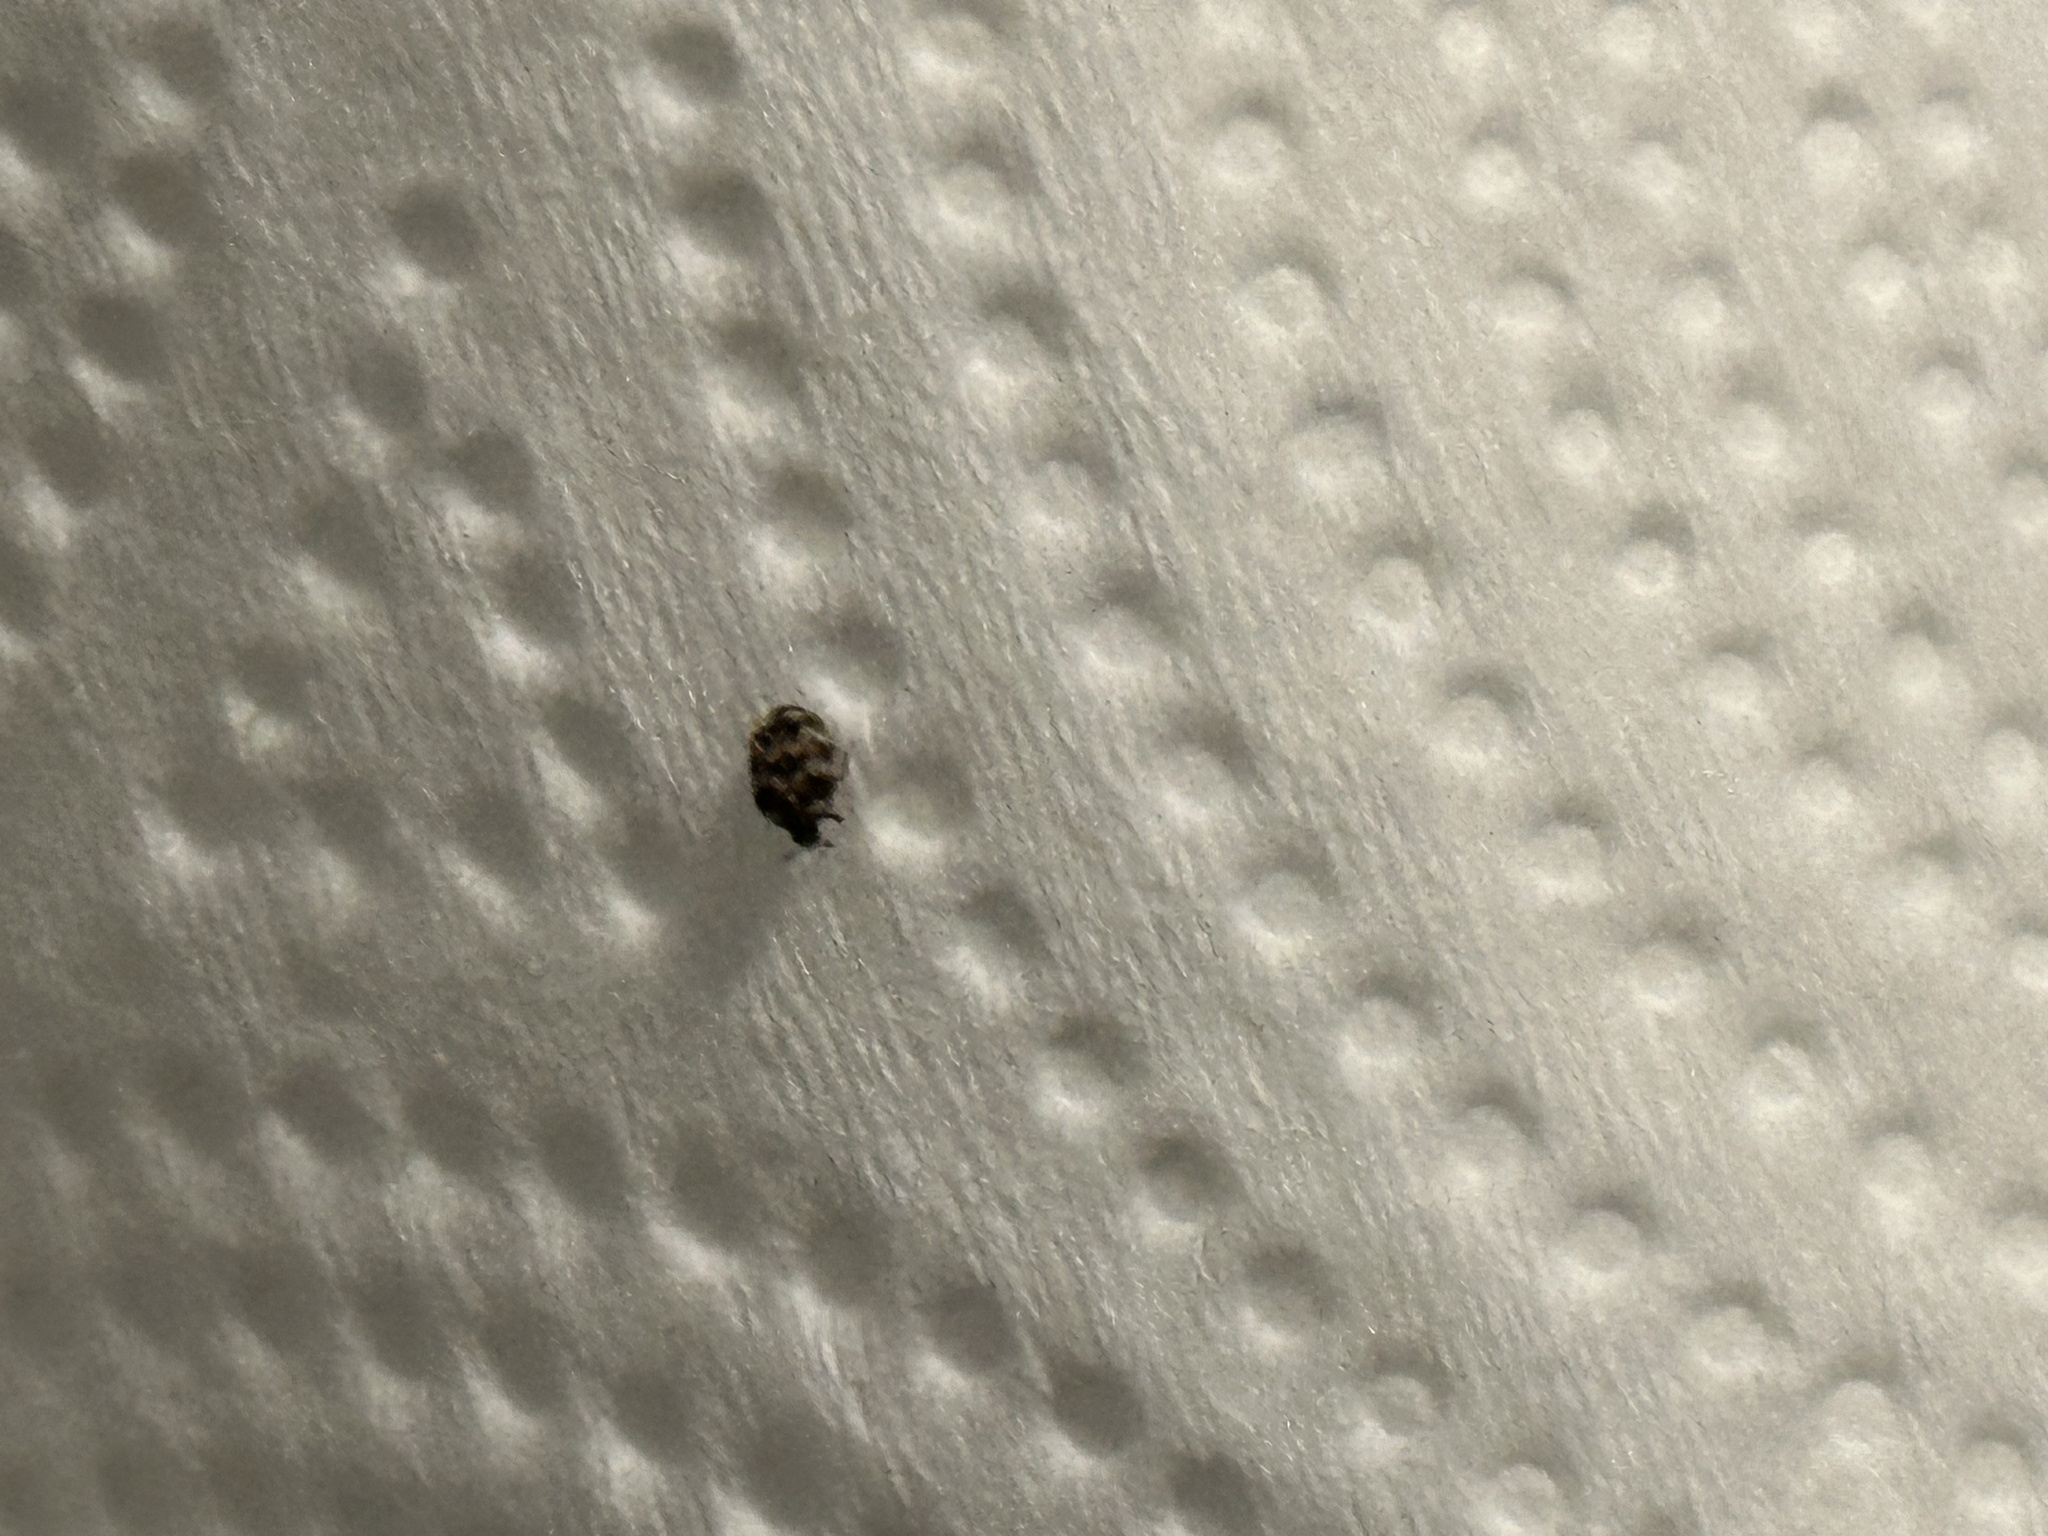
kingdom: Animalia
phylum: Arthropoda
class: Insecta
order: Coleoptera
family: Dermestidae
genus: Anthrenus
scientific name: Anthrenus verbasci
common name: Varied carpet beetle
